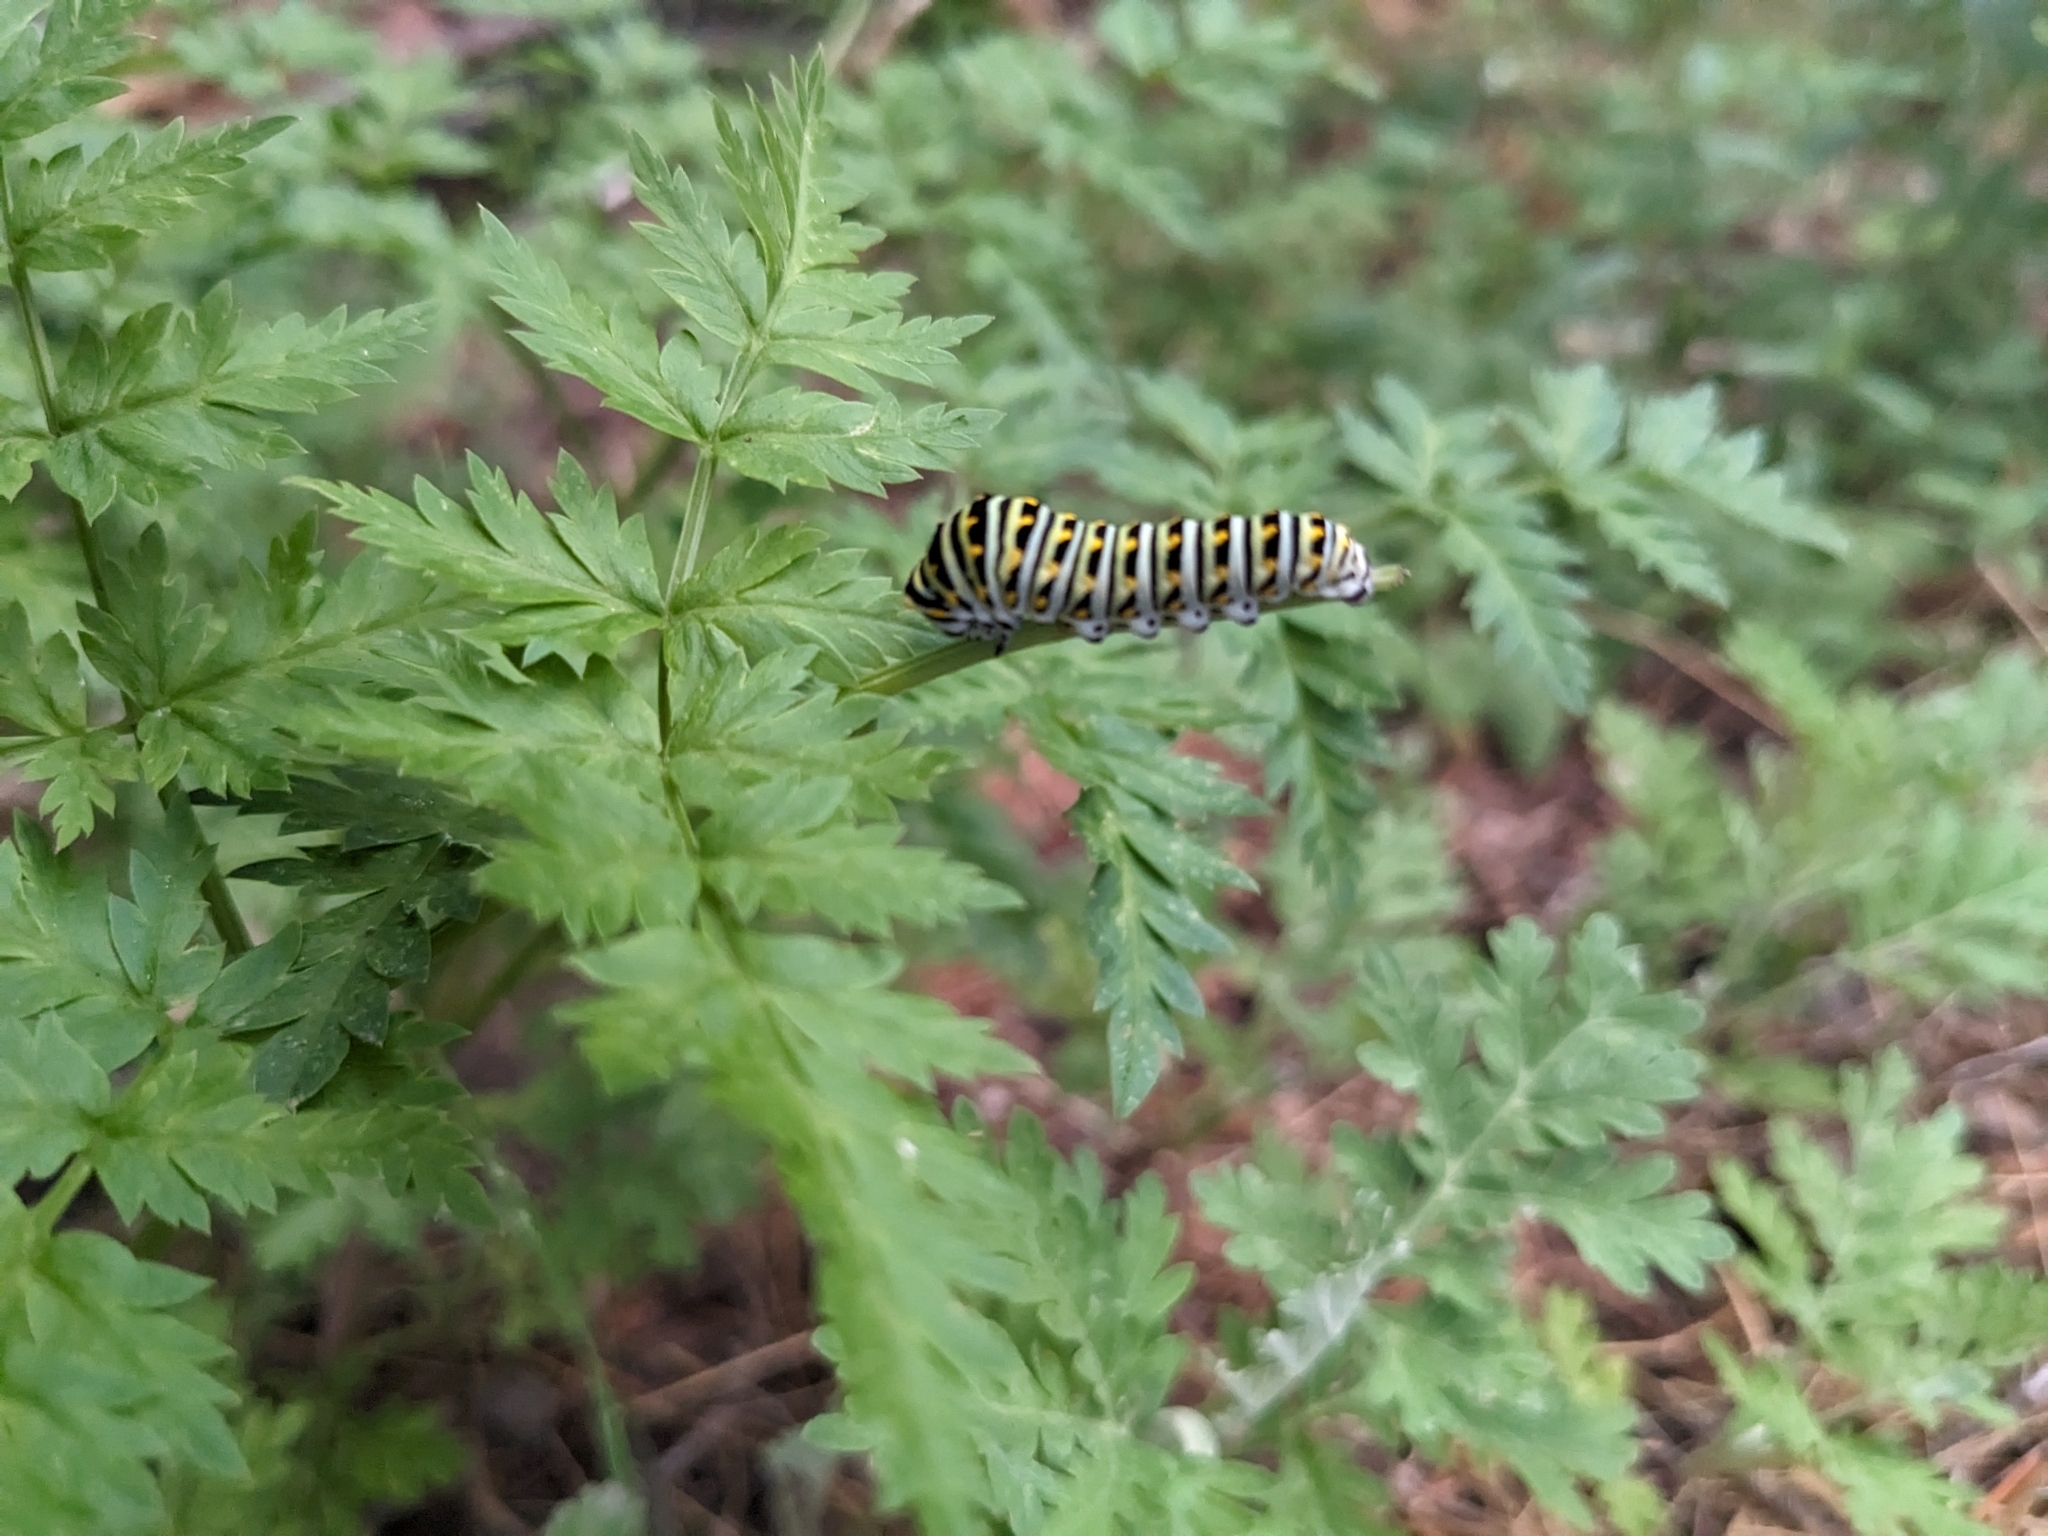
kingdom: Animalia
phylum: Arthropoda
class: Insecta
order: Lepidoptera
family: Papilionidae
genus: Papilio
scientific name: Papilio polyxenes
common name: Black swallowtail
